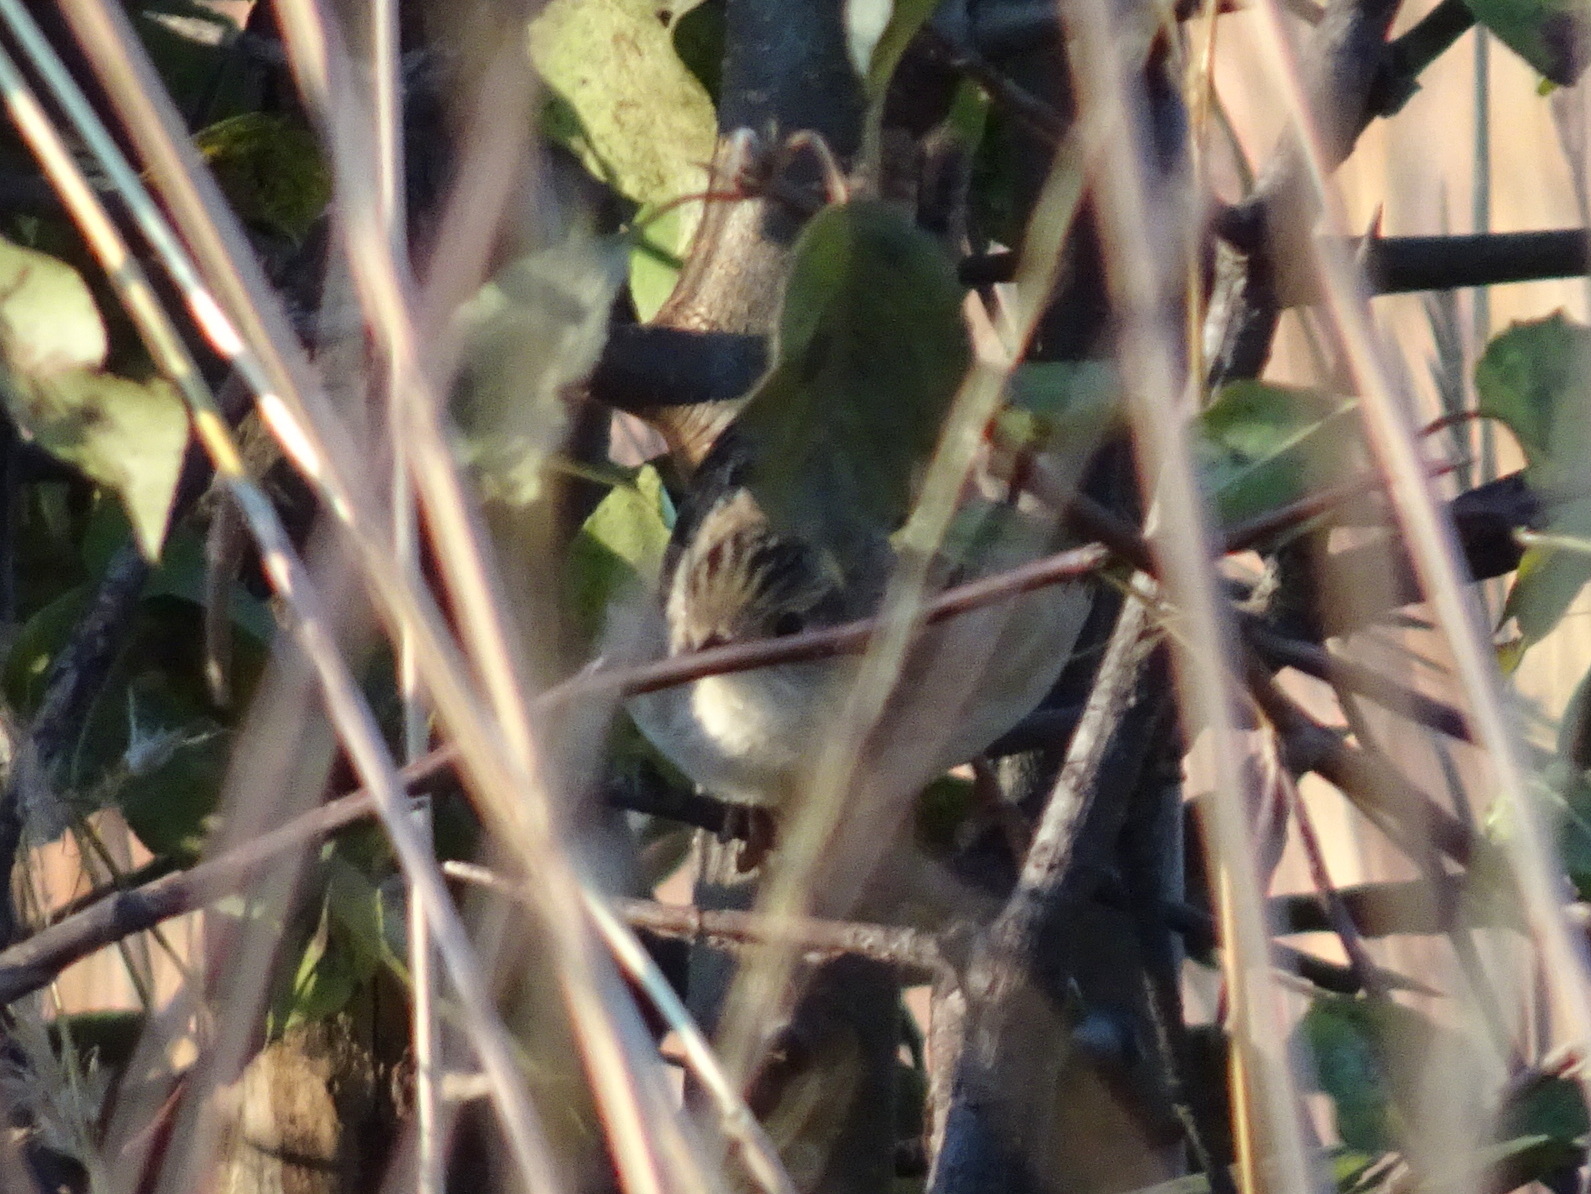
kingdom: Animalia
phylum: Chordata
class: Aves
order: Passeriformes
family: Troglodytidae
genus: Cistothorus
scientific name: Cistothorus platensis
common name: Sedge wren
